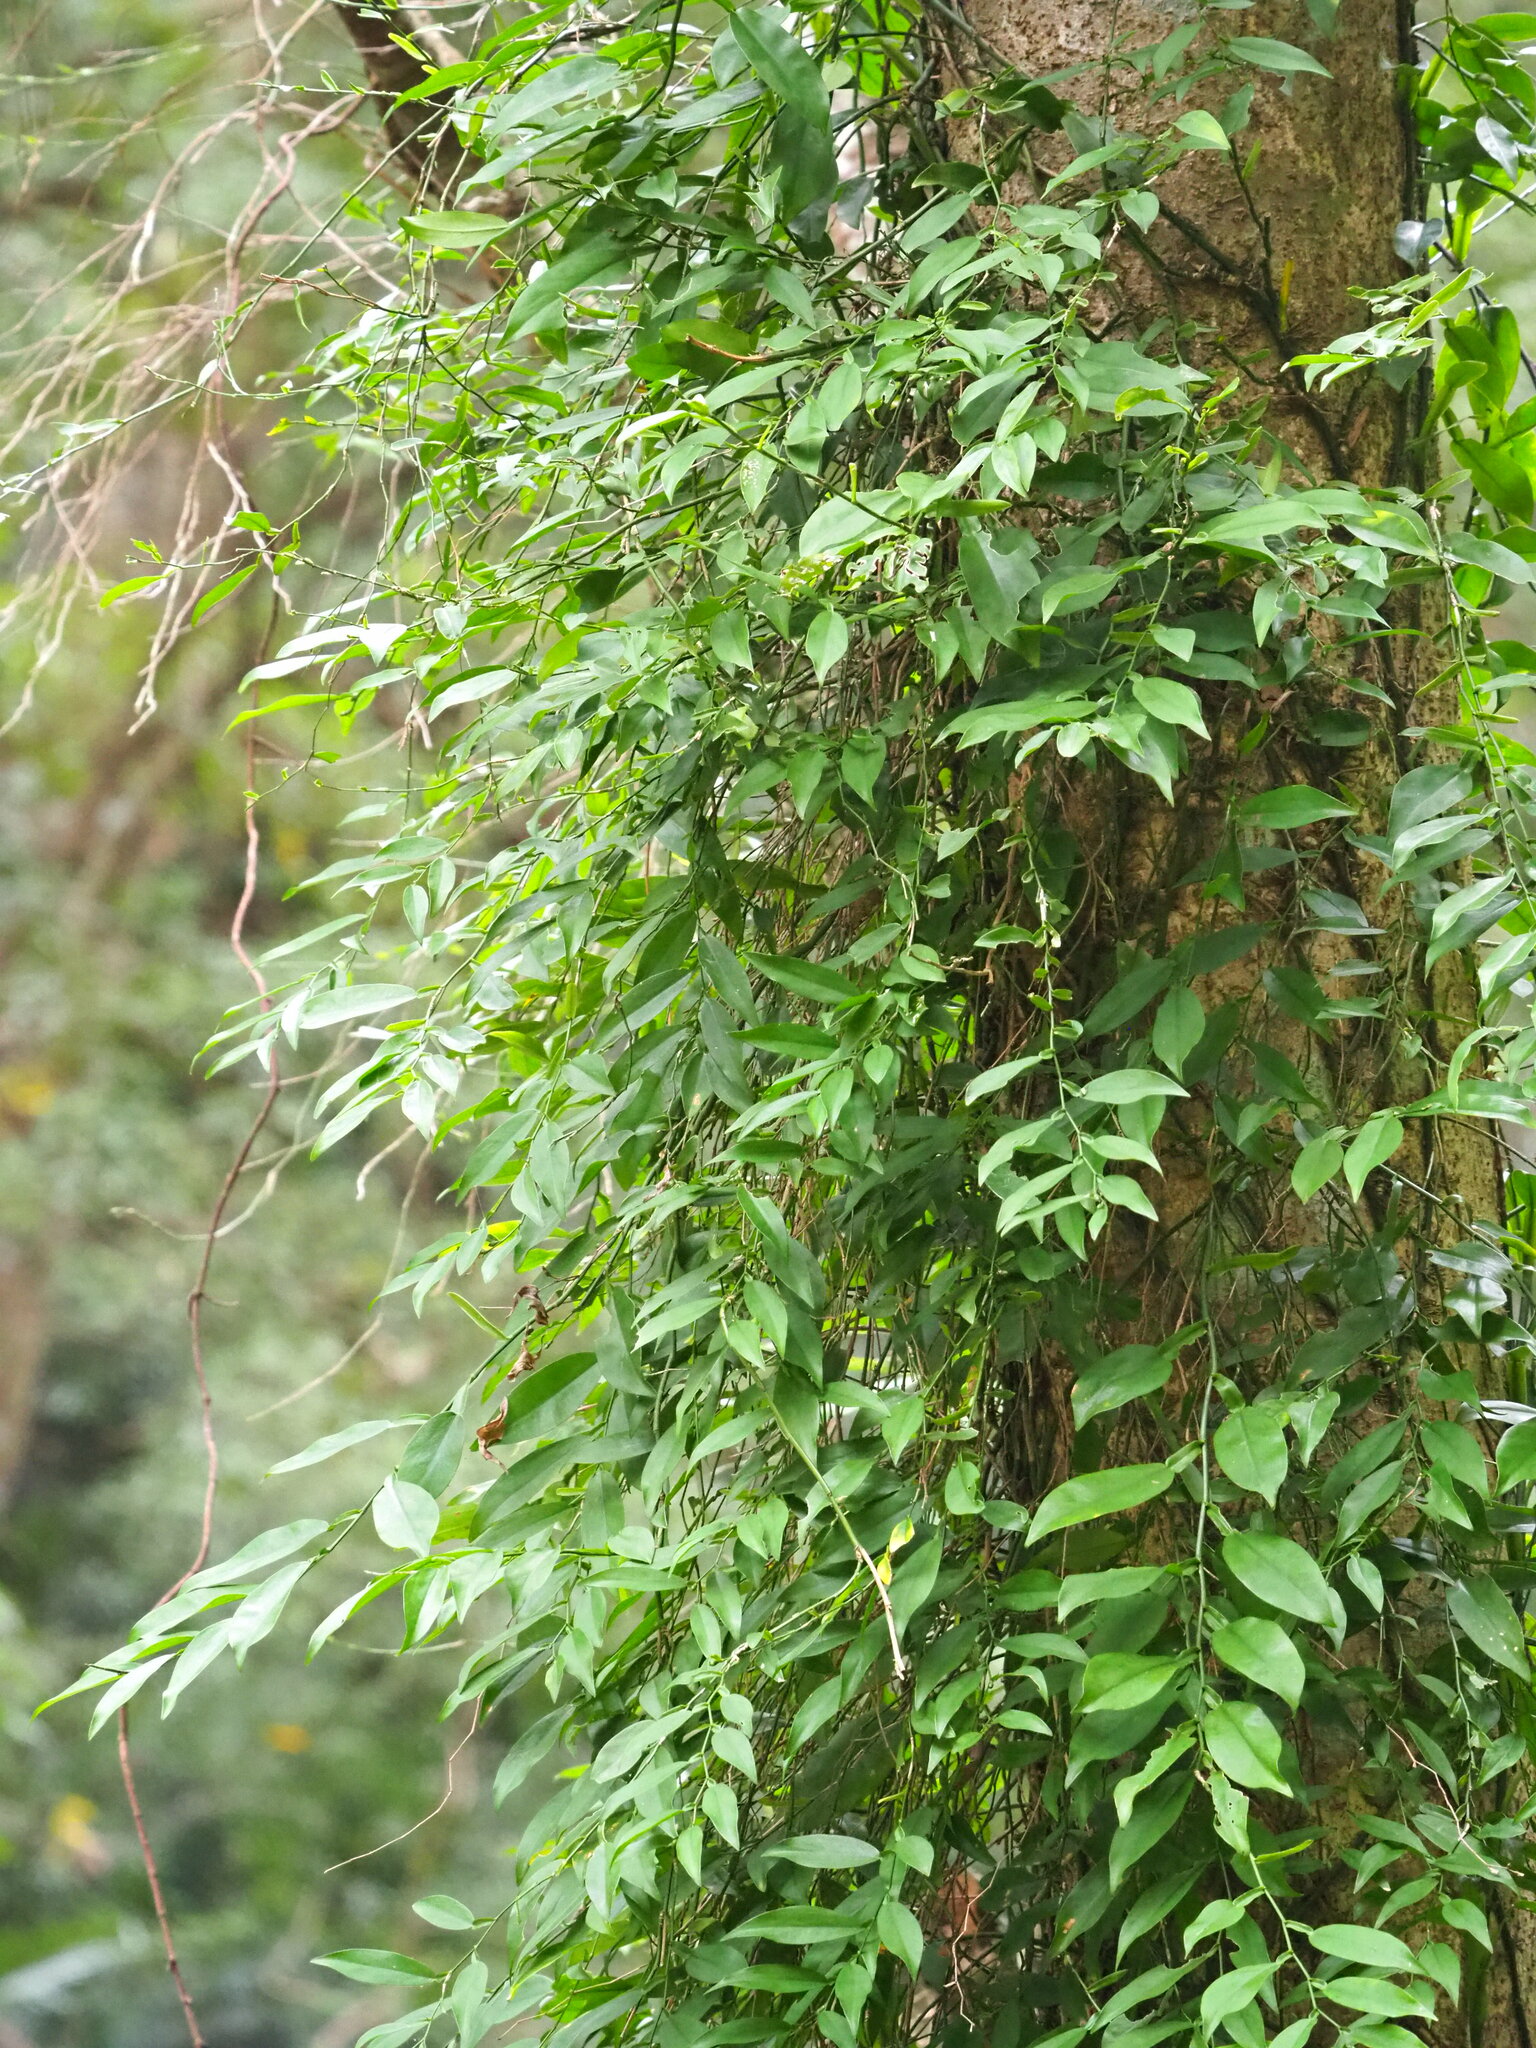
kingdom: Plantae
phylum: Tracheophyta
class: Liliopsida
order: Alismatales
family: Araceae
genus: Pothos
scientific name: Pothos chinensis
